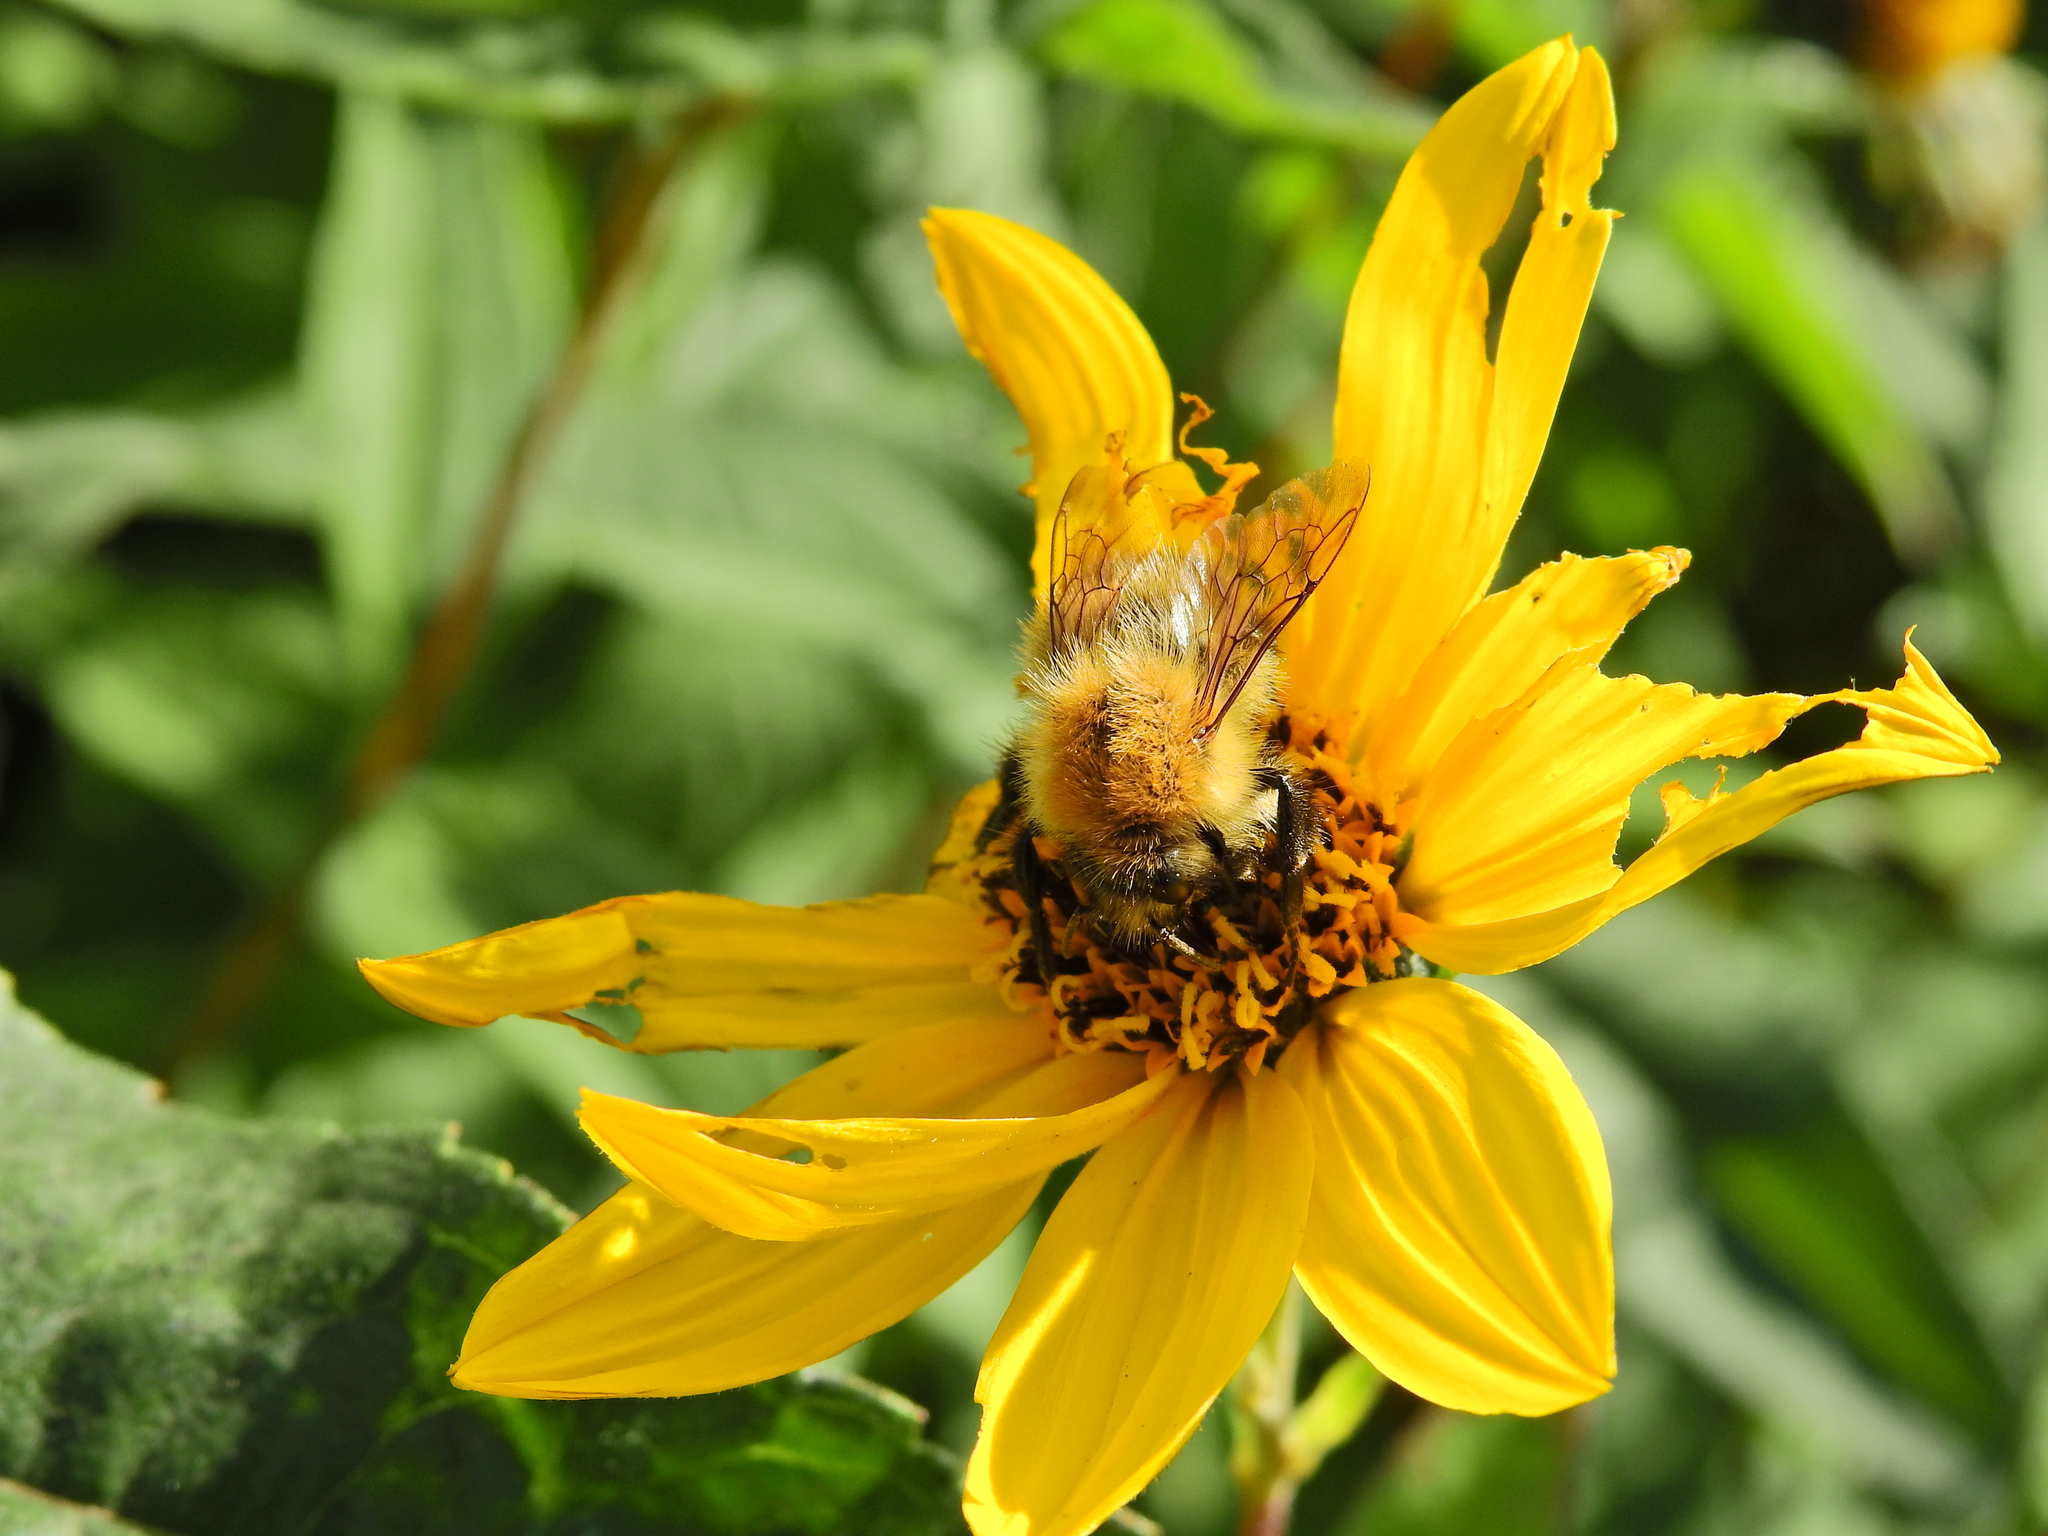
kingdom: Animalia
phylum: Arthropoda
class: Insecta
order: Hymenoptera
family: Apidae
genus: Bombus
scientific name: Bombus pascuorum
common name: Common carder bee
